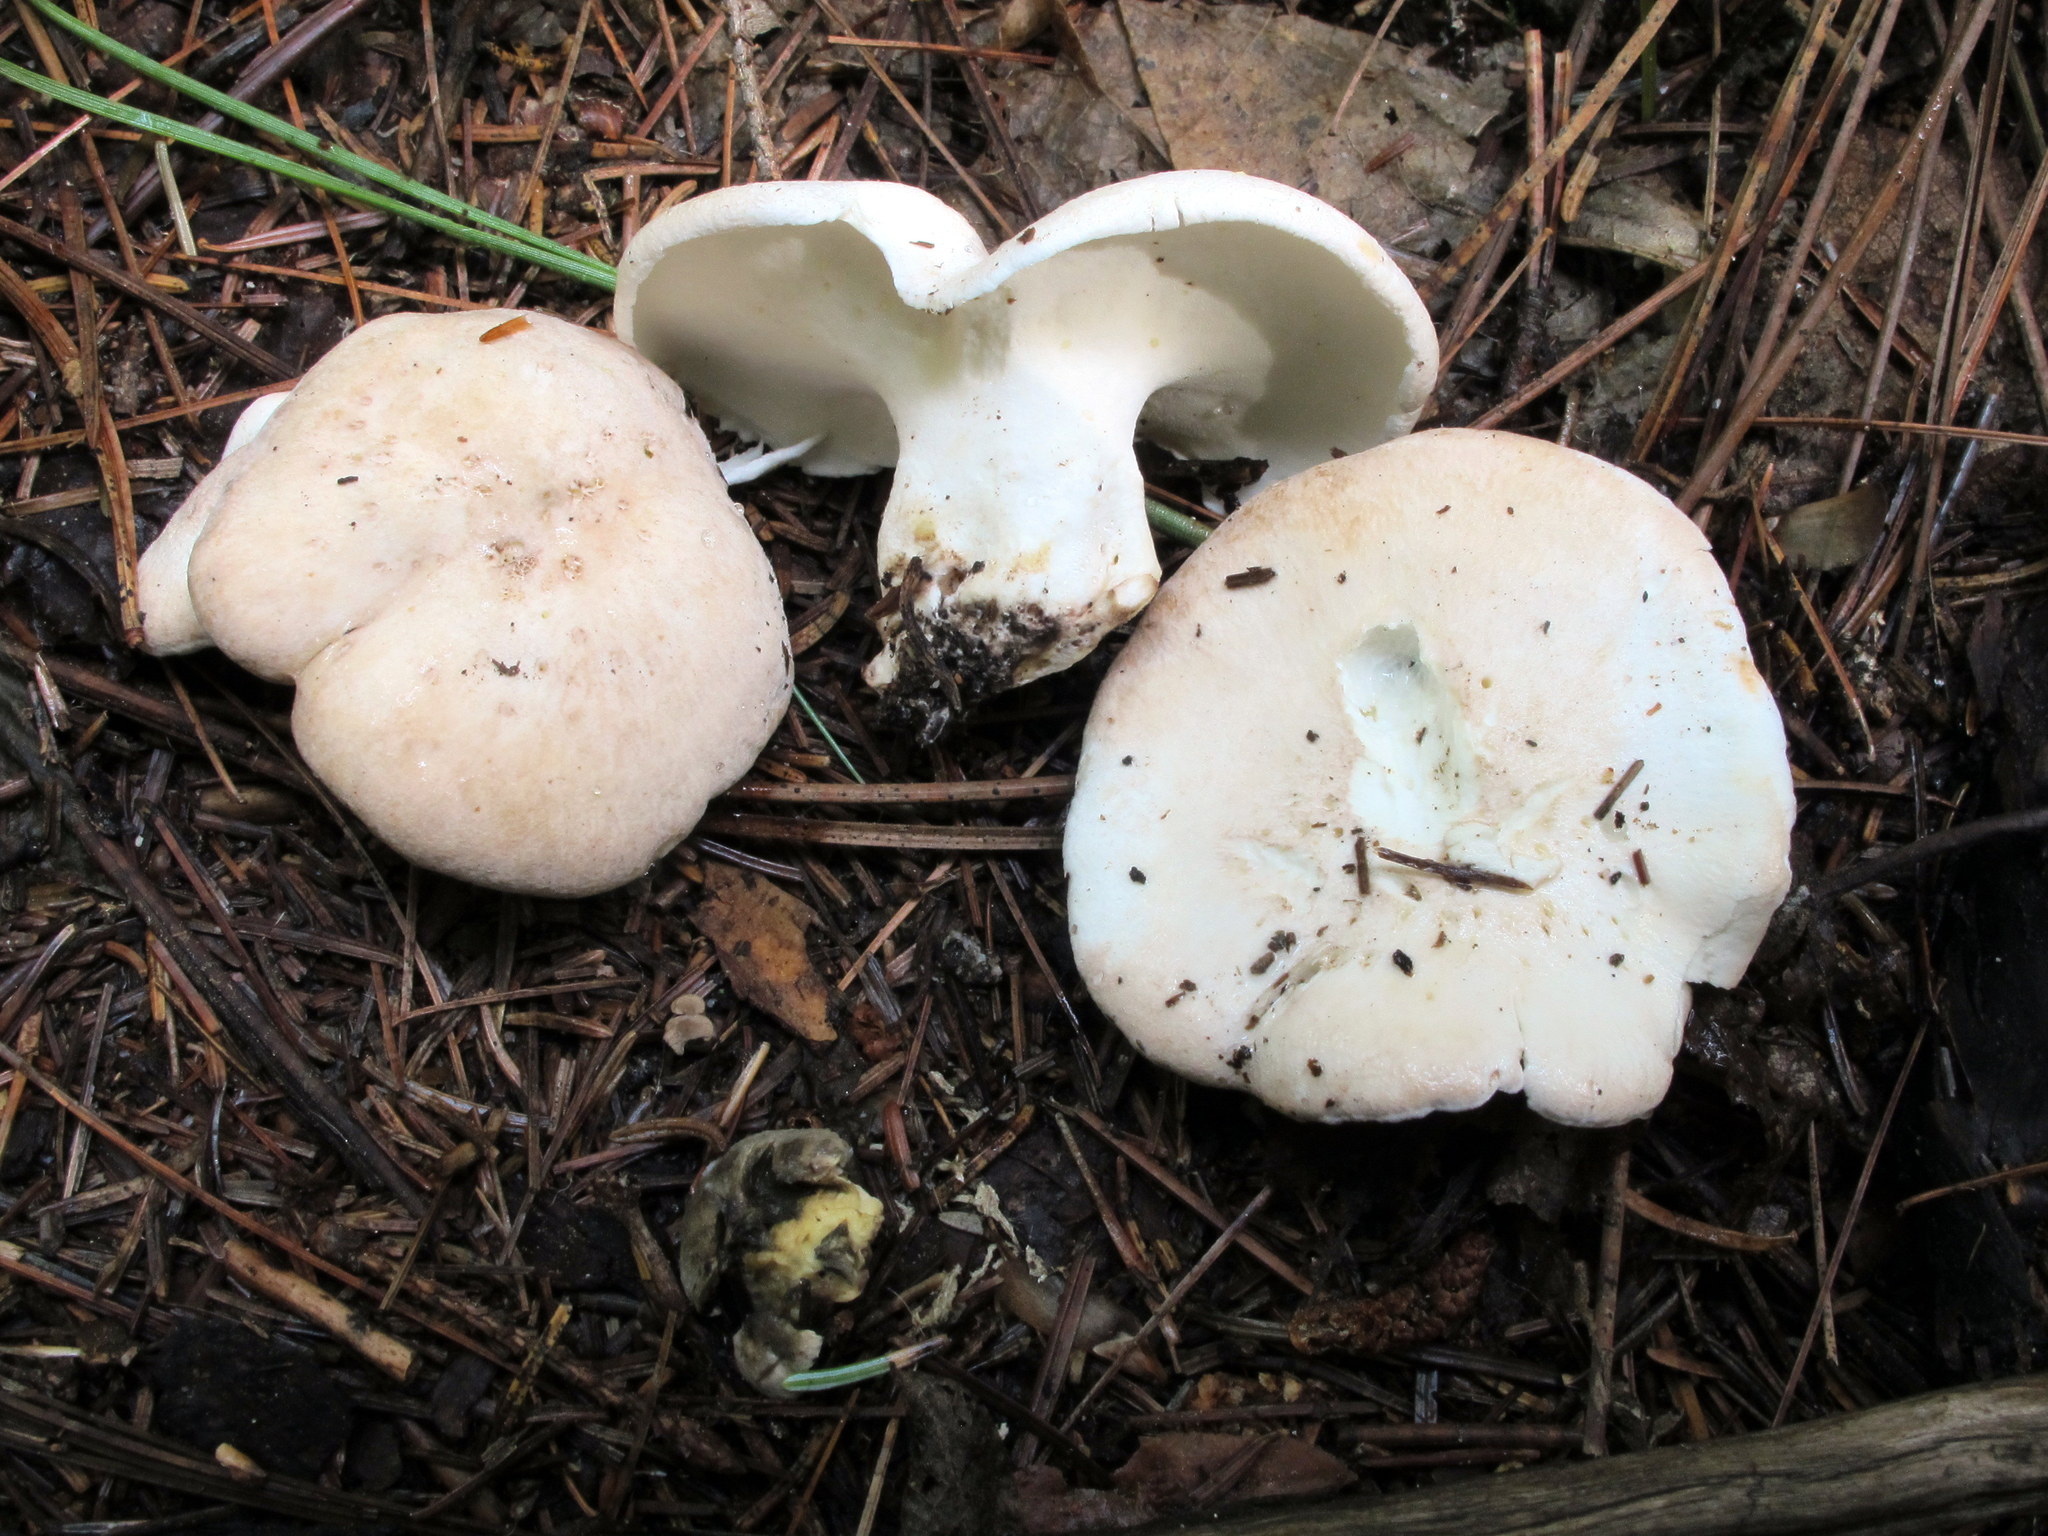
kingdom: Fungi
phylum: Basidiomycota
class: Agaricomycetes
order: Russulales
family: Albatrellaceae
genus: Albatrellus
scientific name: Albatrellus ovinus
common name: Forest lamb
